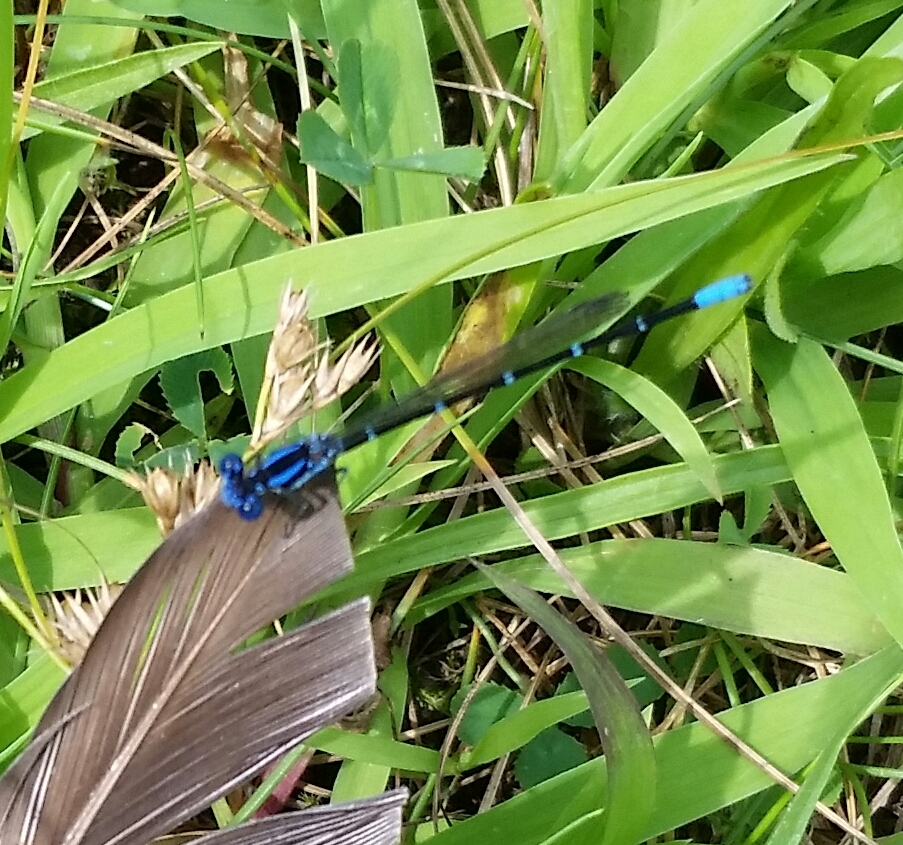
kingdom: Animalia
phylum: Arthropoda
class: Insecta
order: Odonata
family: Coenagrionidae
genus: Argia
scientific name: Argia sedula
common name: Blue-ringed dancer
